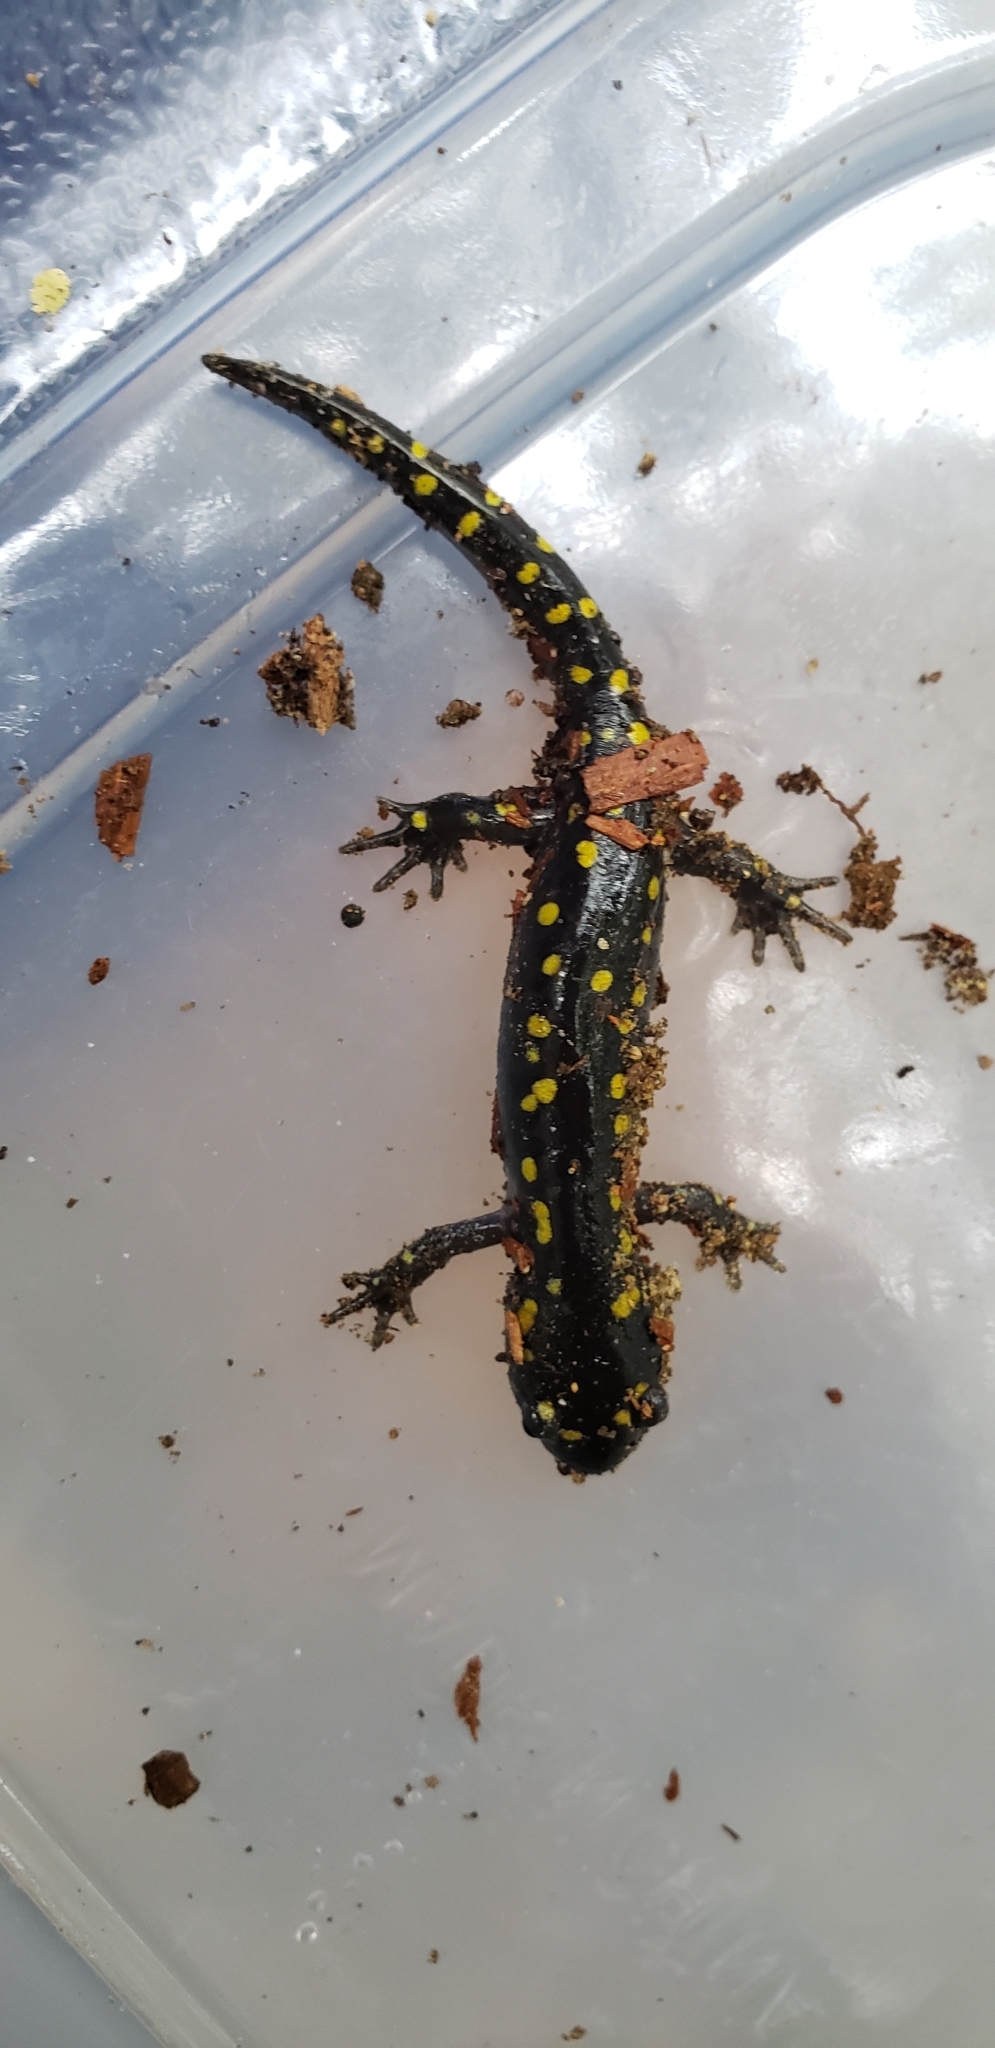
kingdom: Animalia
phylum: Chordata
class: Amphibia
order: Caudata
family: Ambystomatidae
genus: Ambystoma
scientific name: Ambystoma maculatum
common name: Spotted salamander
